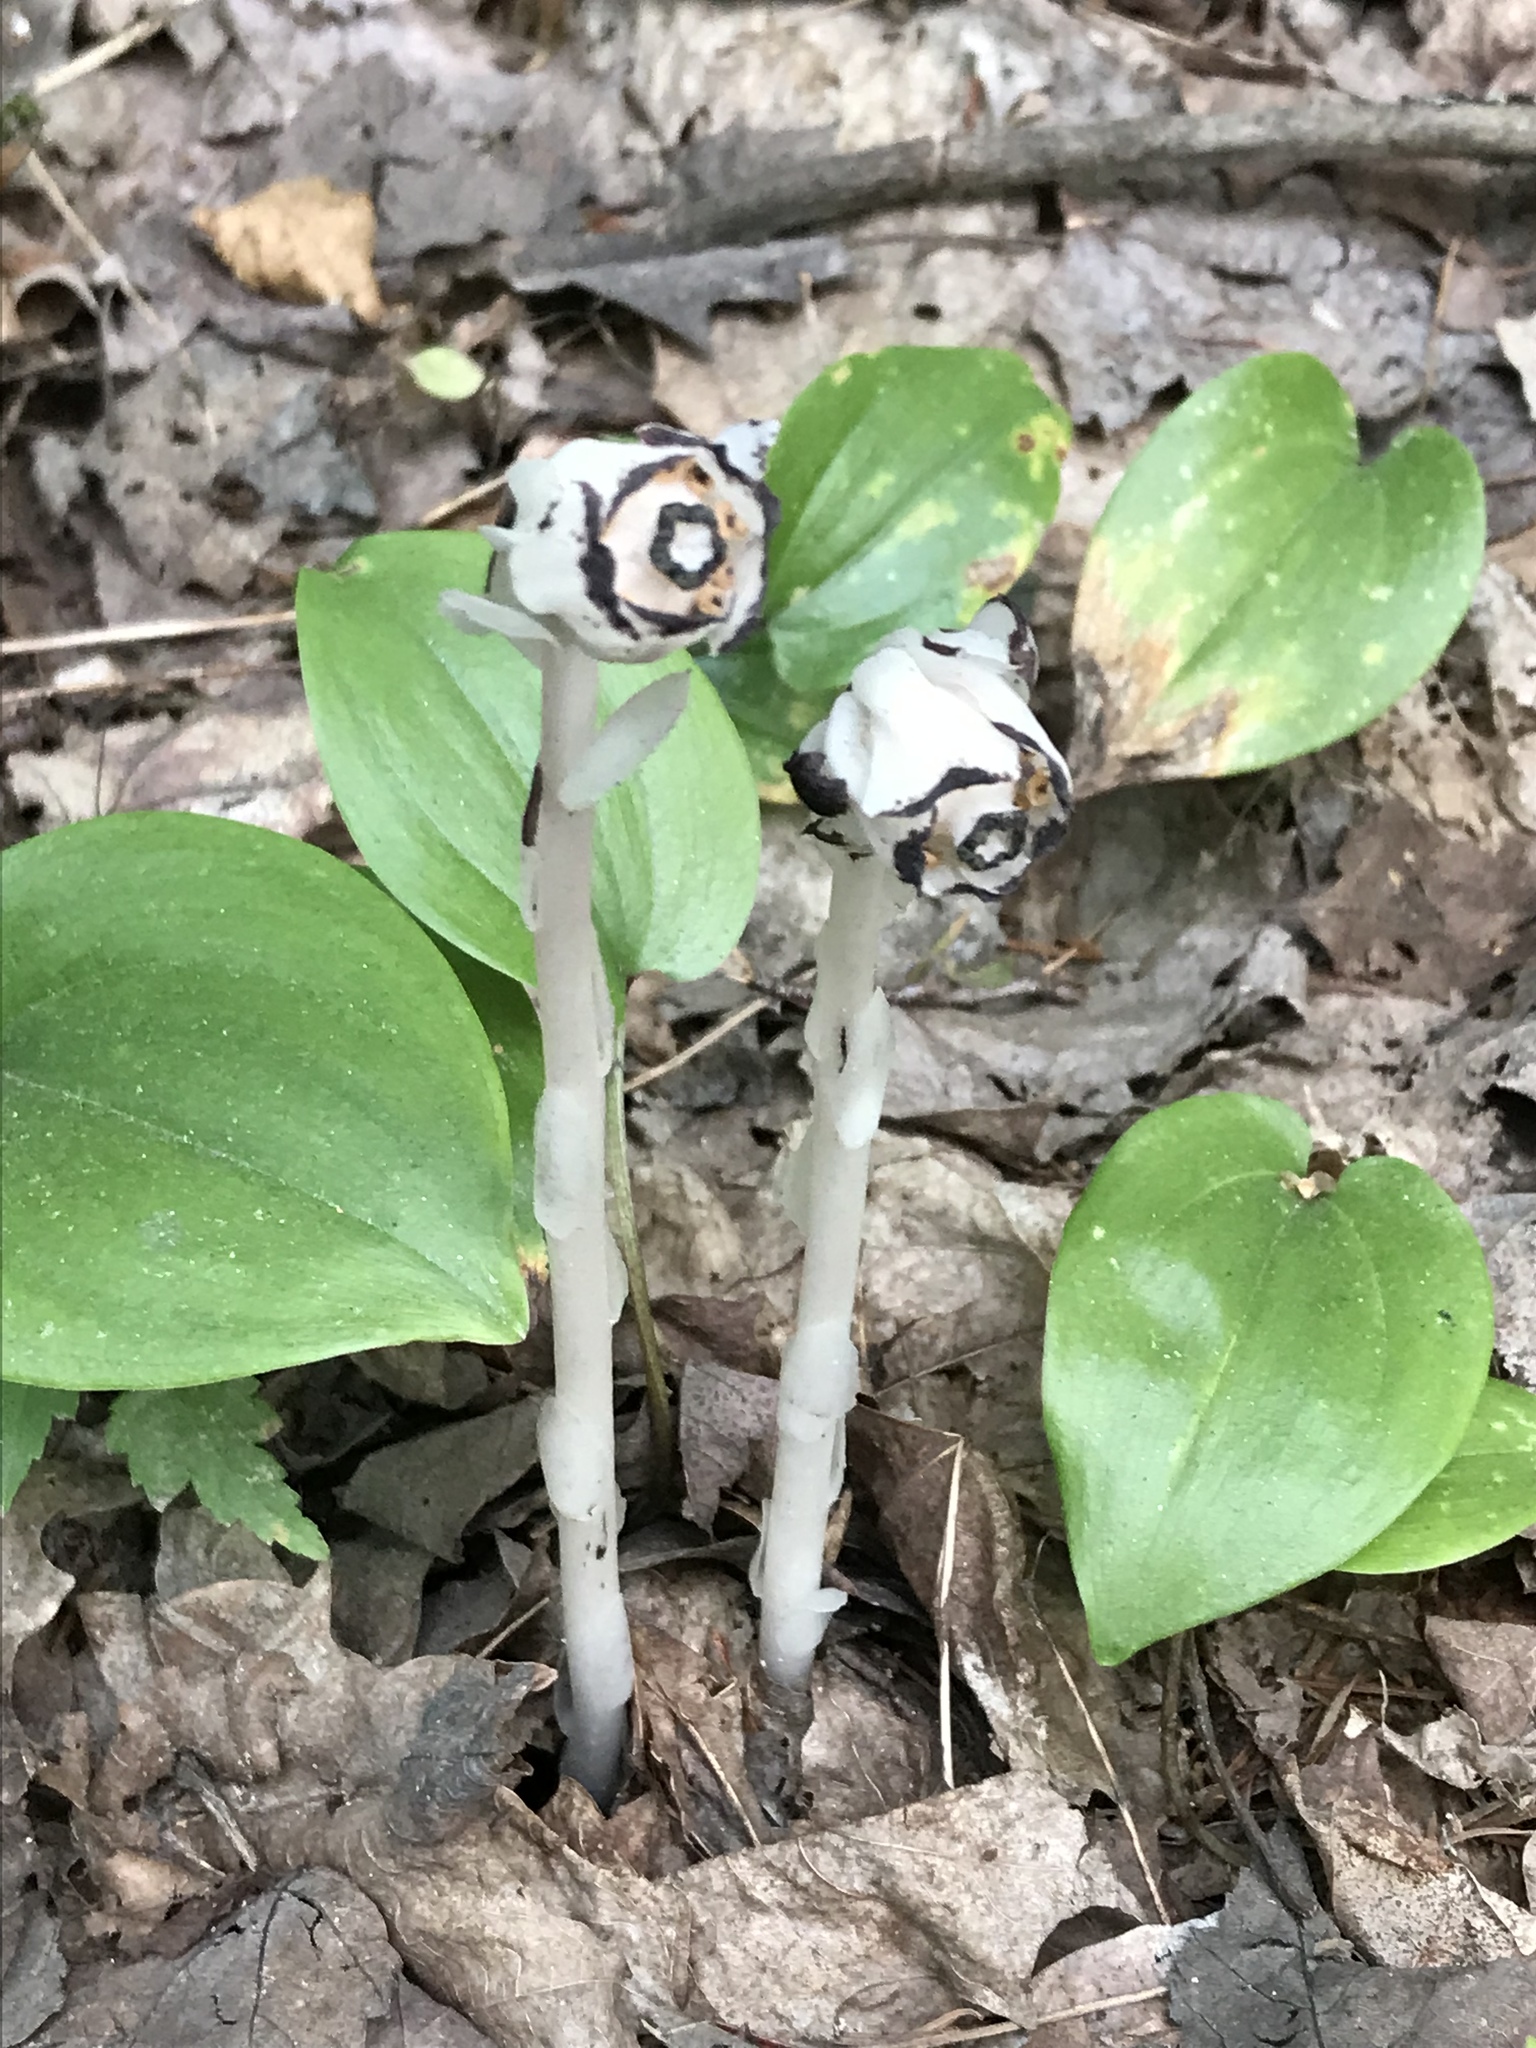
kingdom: Plantae
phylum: Tracheophyta
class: Magnoliopsida
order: Ericales
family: Ericaceae
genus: Monotropa
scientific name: Monotropa uniflora
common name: Convulsion root
